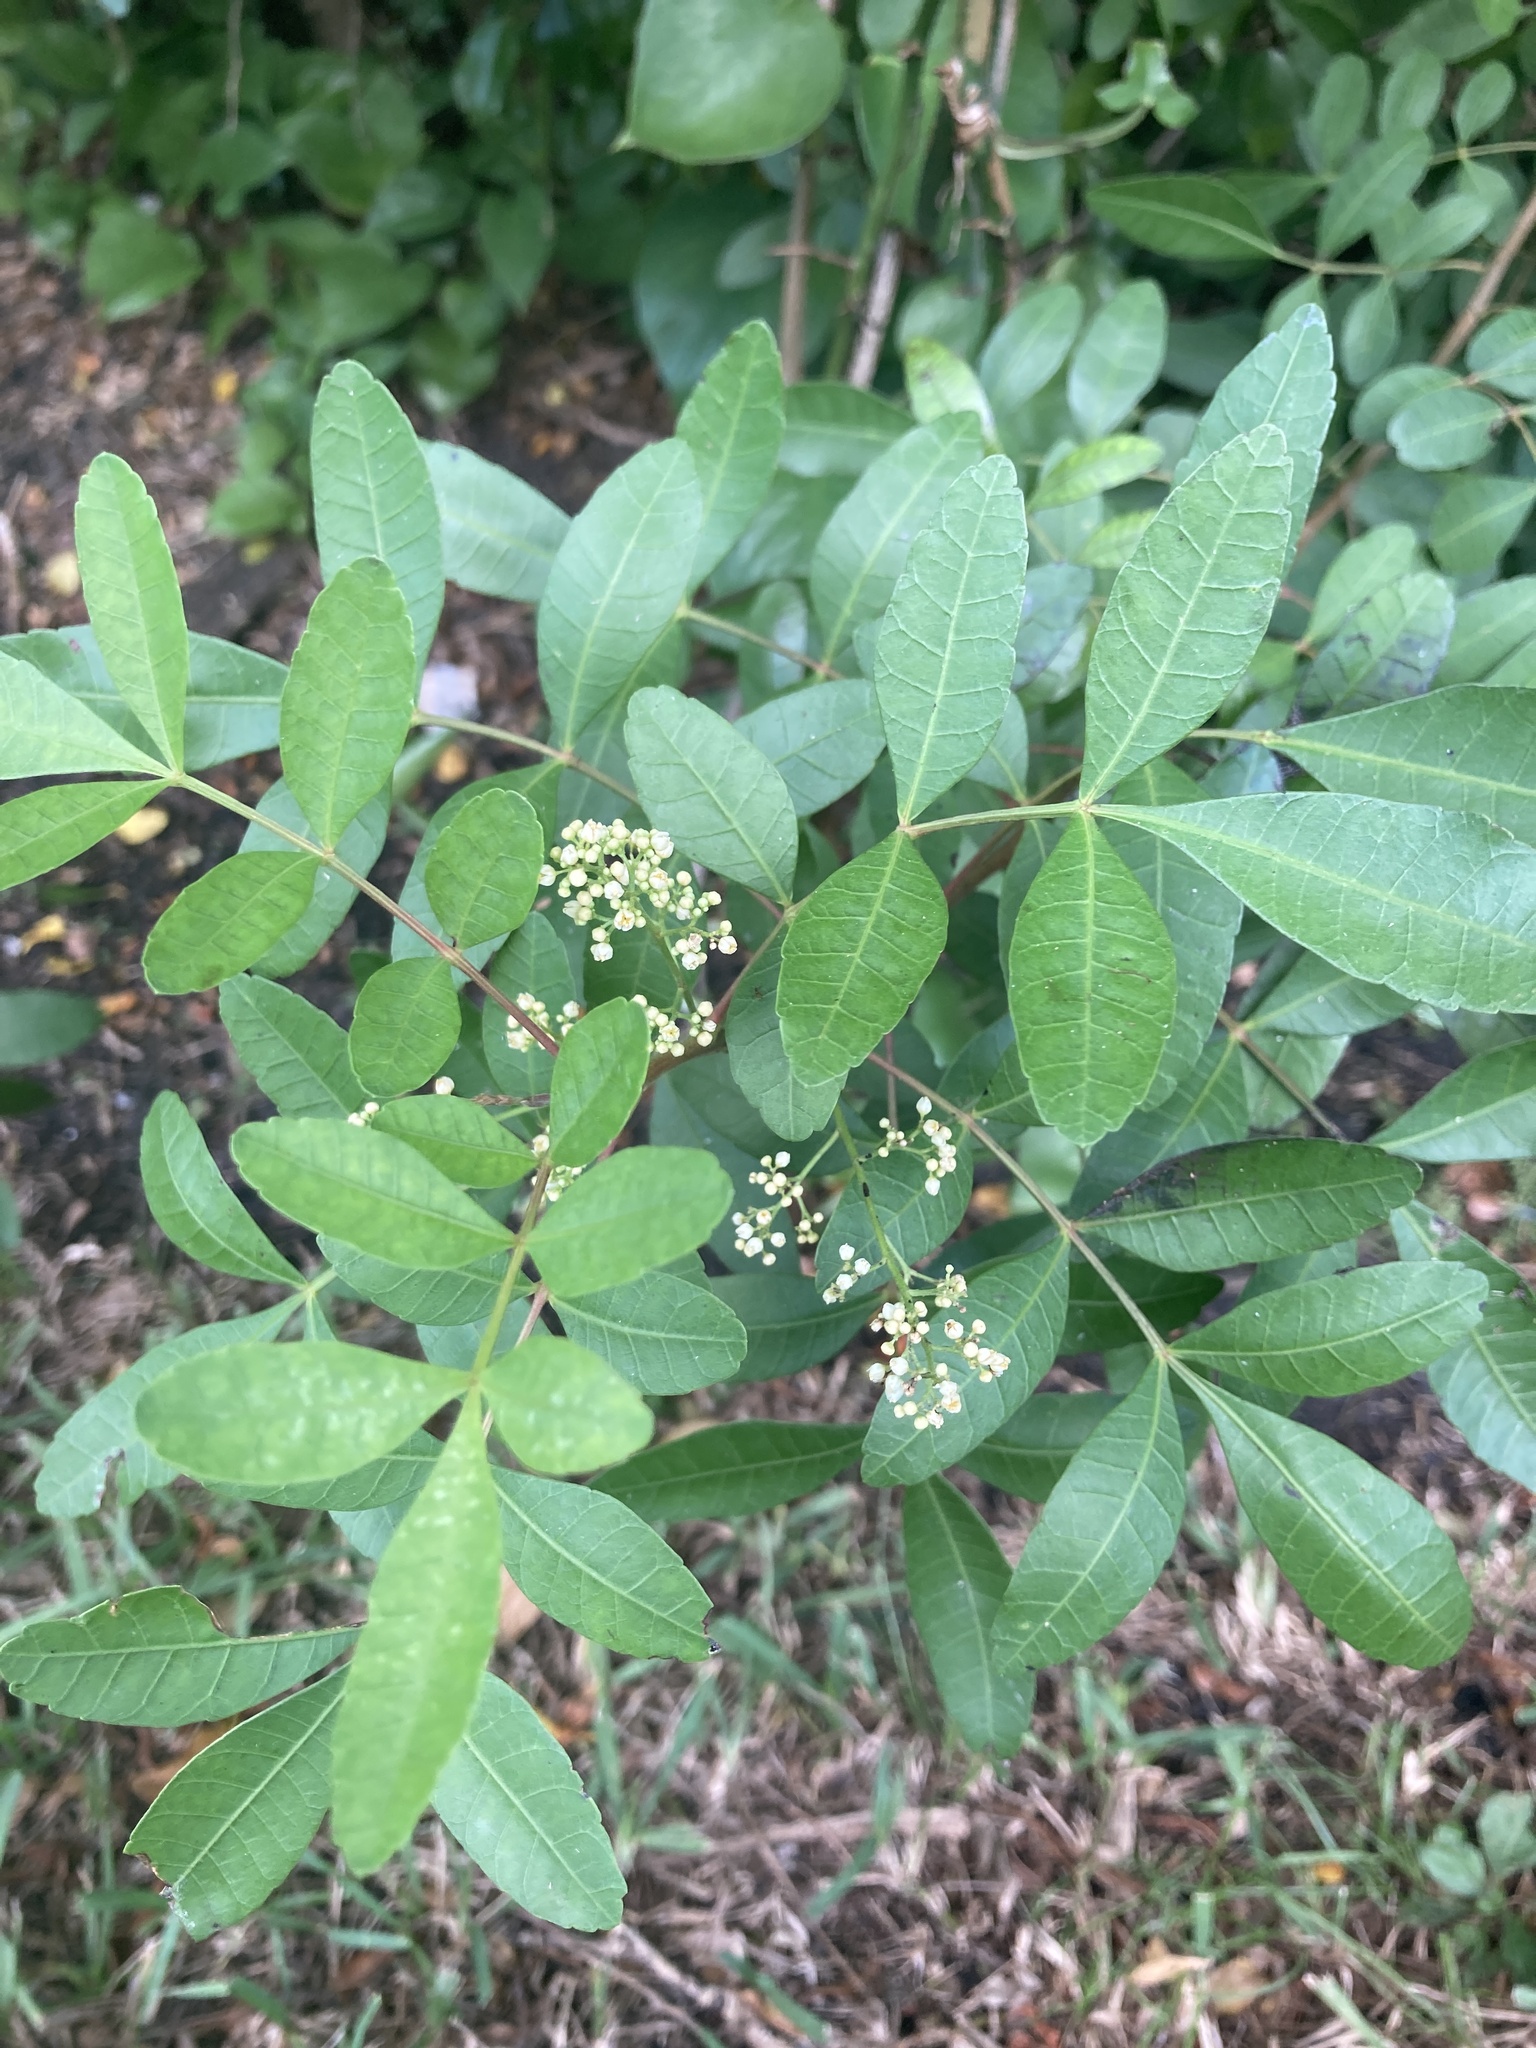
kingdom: Plantae
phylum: Tracheophyta
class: Magnoliopsida
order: Sapindales
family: Anacardiaceae
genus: Schinus
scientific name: Schinus terebinthifolia
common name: Brazilian peppertree
